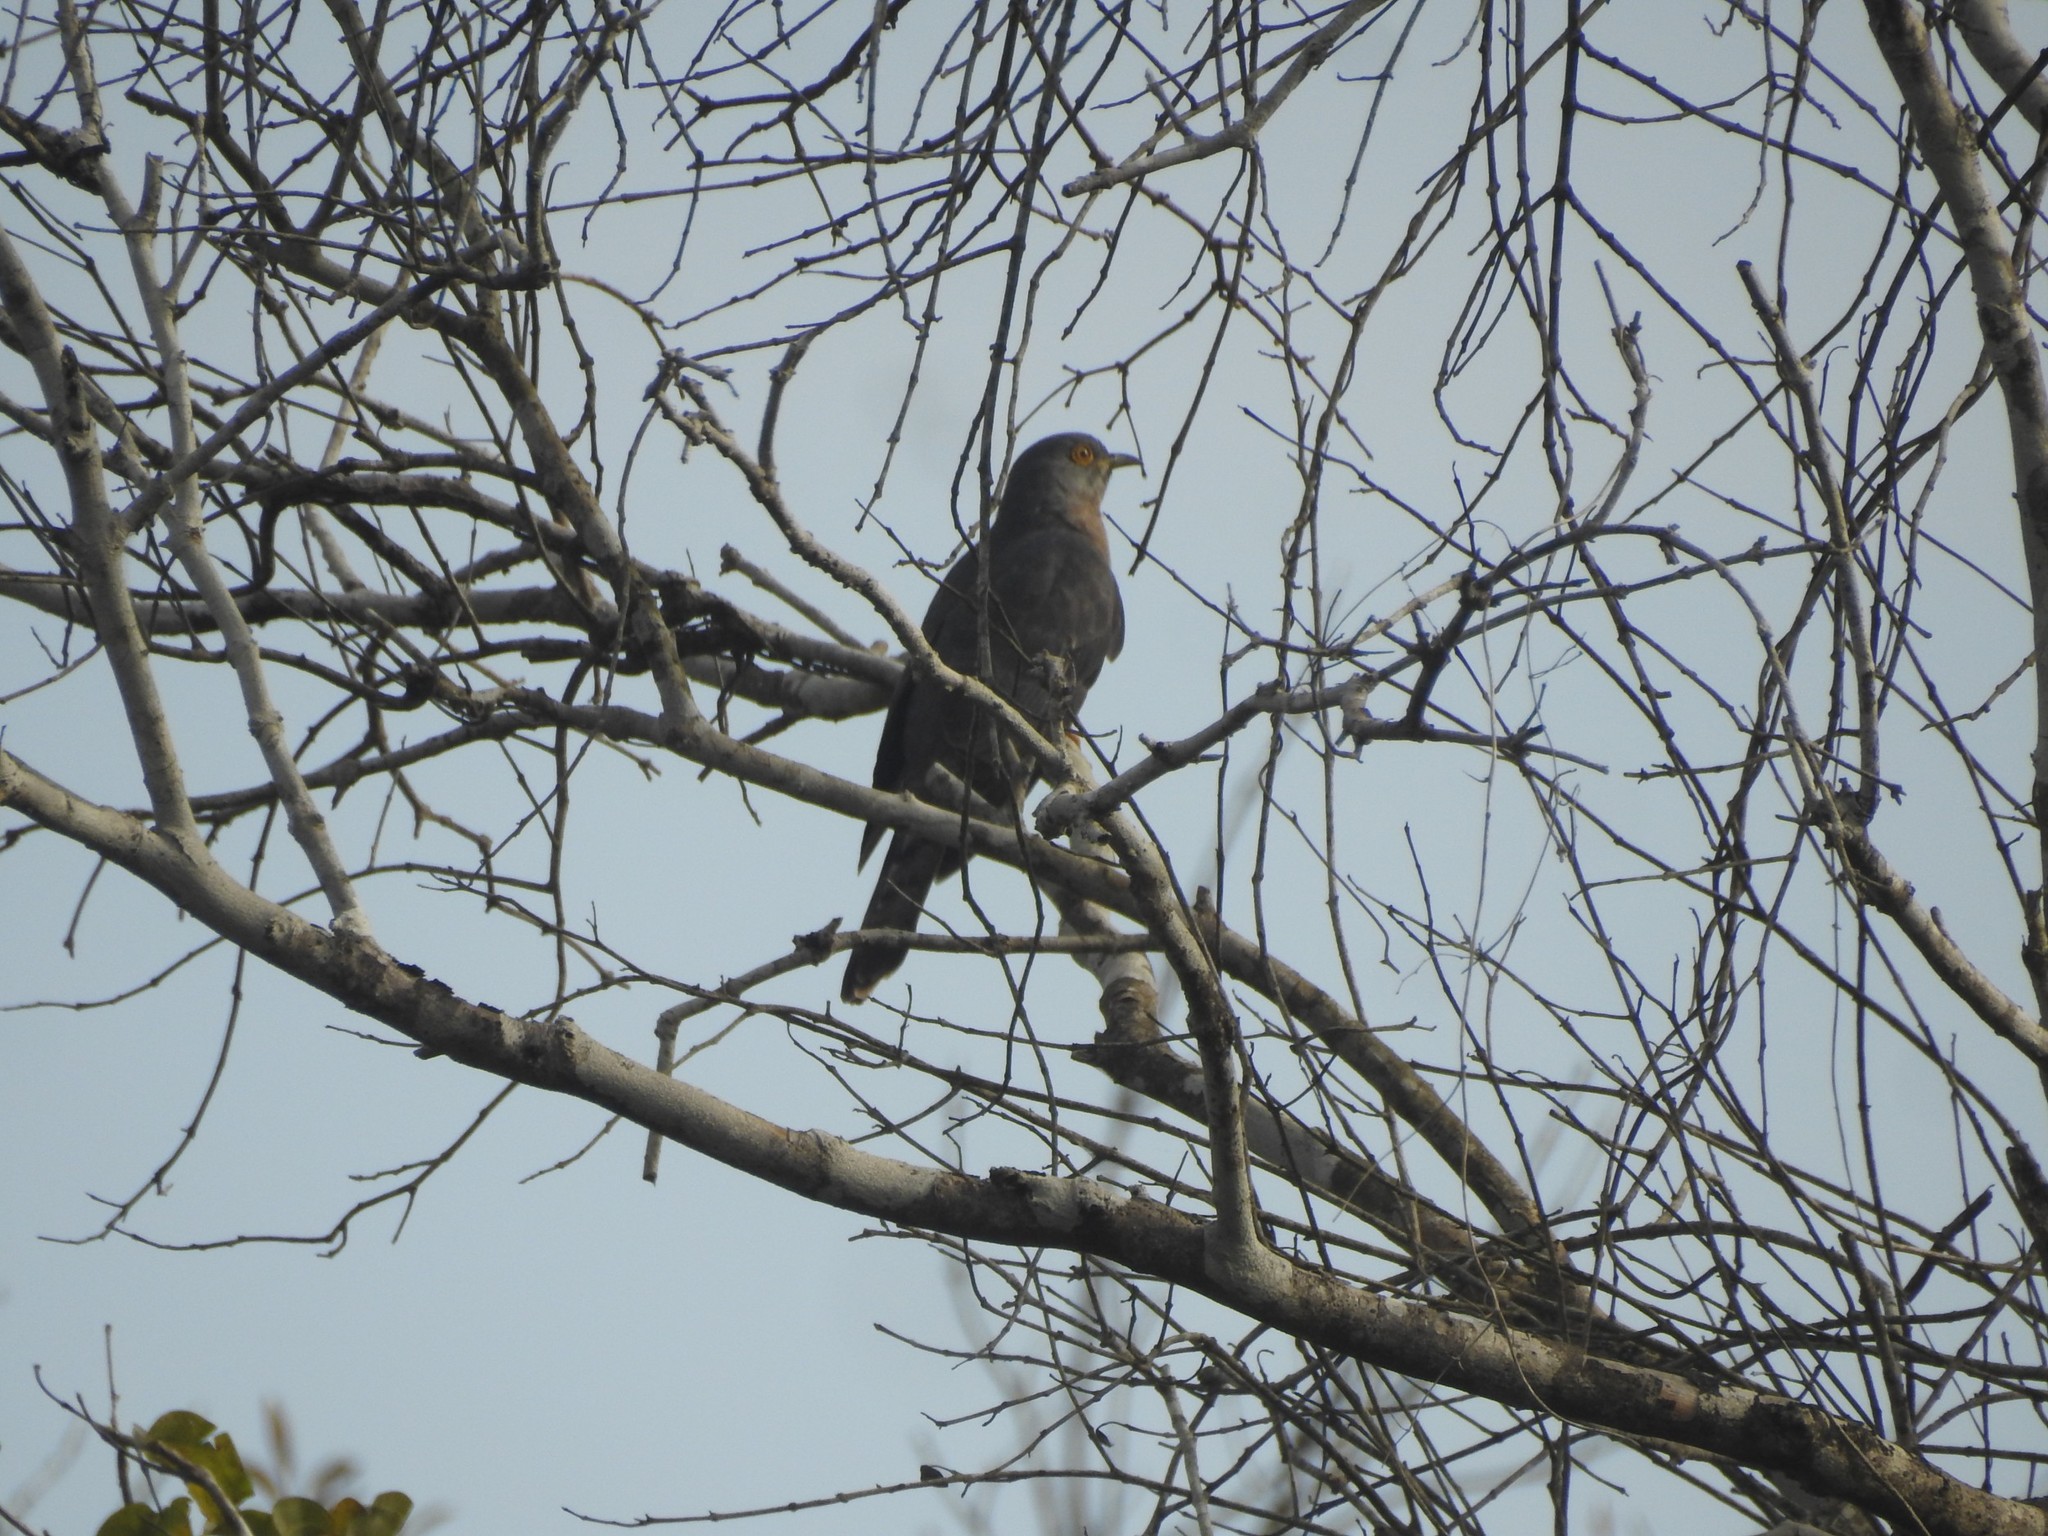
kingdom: Animalia
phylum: Chordata
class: Aves
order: Cuculiformes
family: Cuculidae
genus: Cuculus
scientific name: Cuculus varius
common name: Common hawk cuckoo
